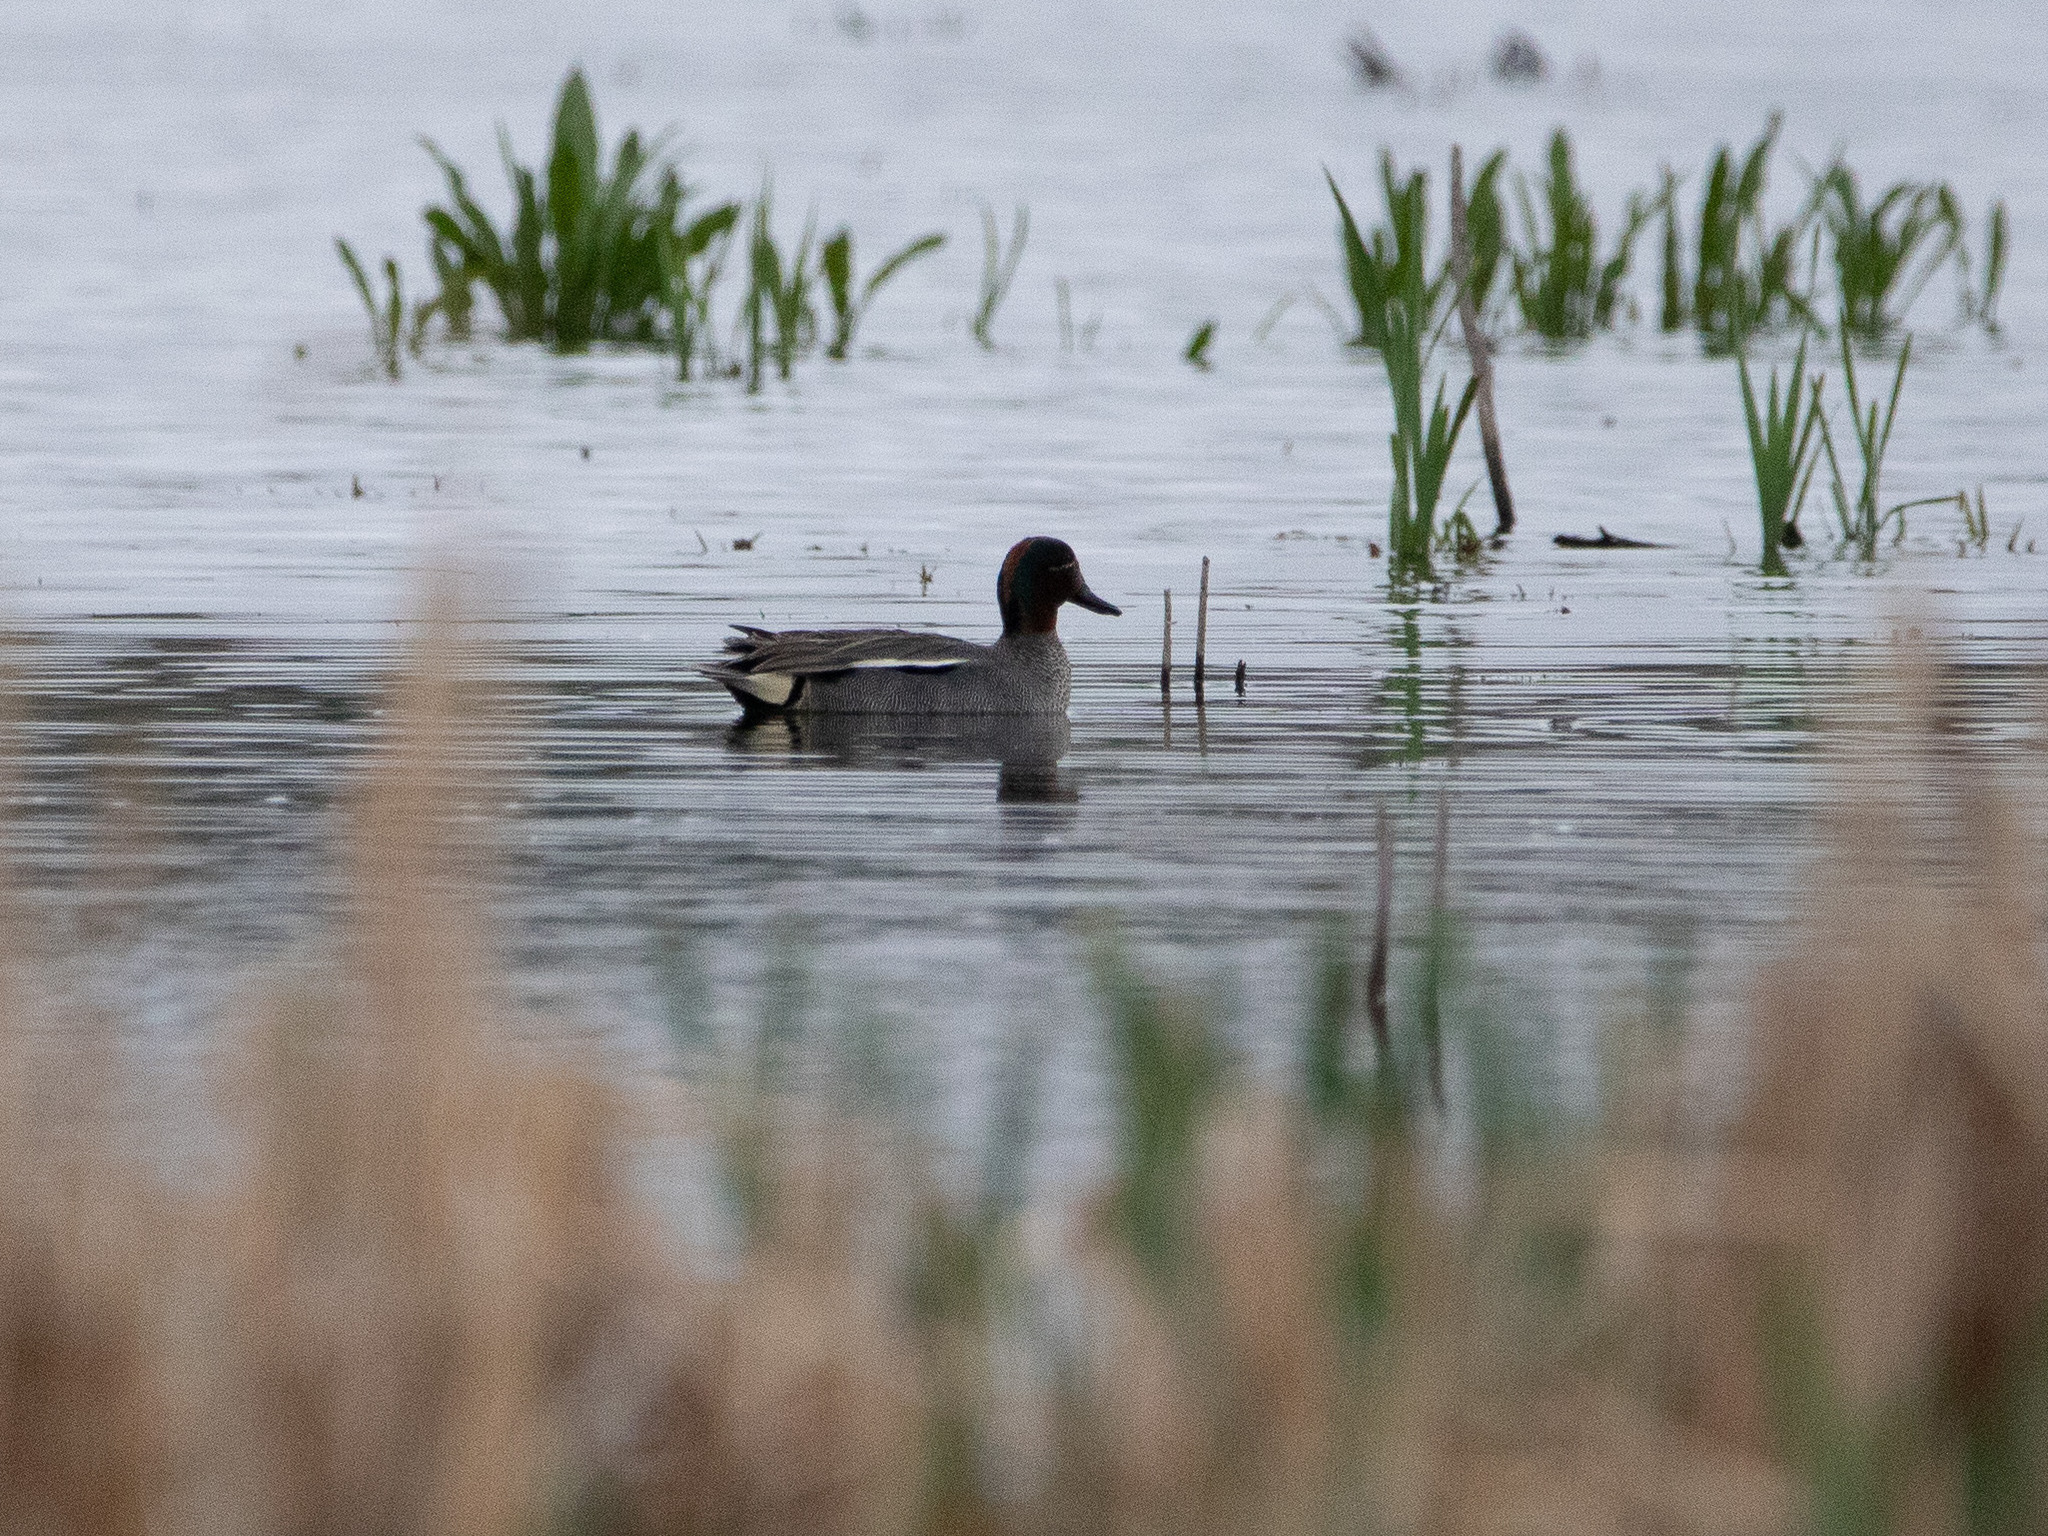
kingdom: Animalia
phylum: Chordata
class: Aves
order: Anseriformes
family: Anatidae
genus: Anas
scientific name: Anas crecca
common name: Eurasian teal
